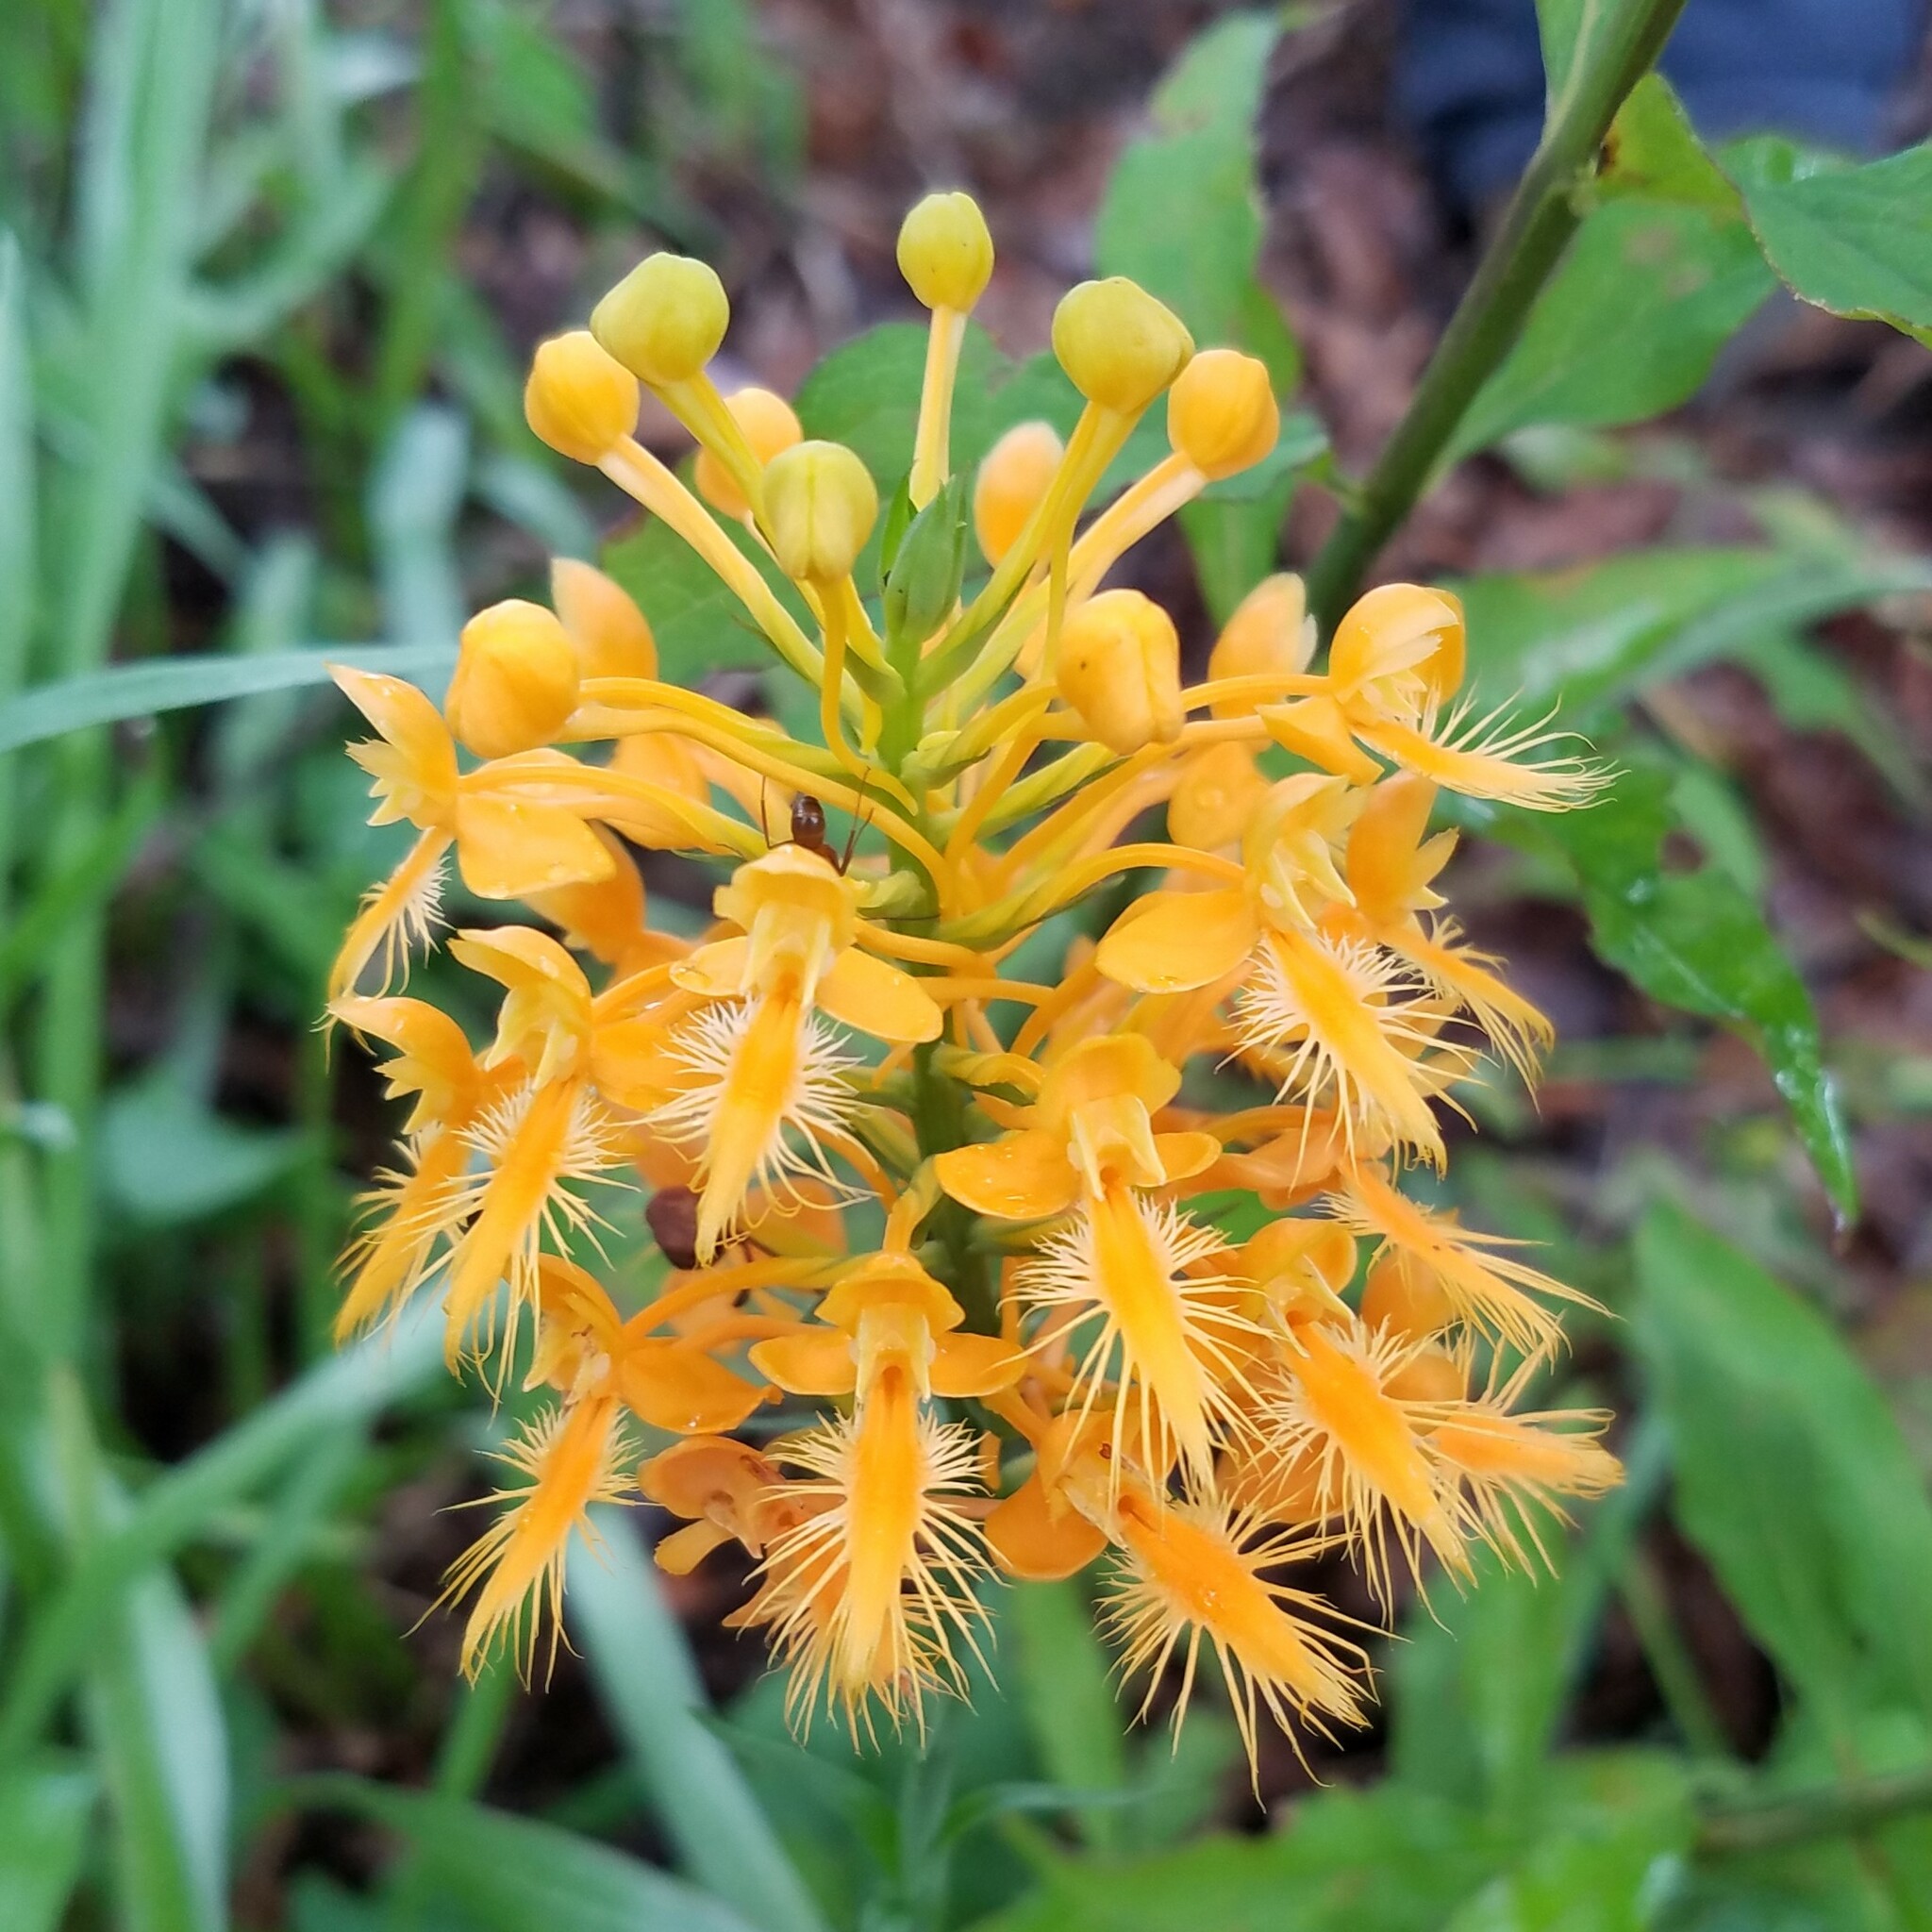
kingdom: Plantae
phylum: Tracheophyta
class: Liliopsida
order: Asparagales
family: Orchidaceae
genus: Platanthera
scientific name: Platanthera ciliaris
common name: Yellow fringed orchid
